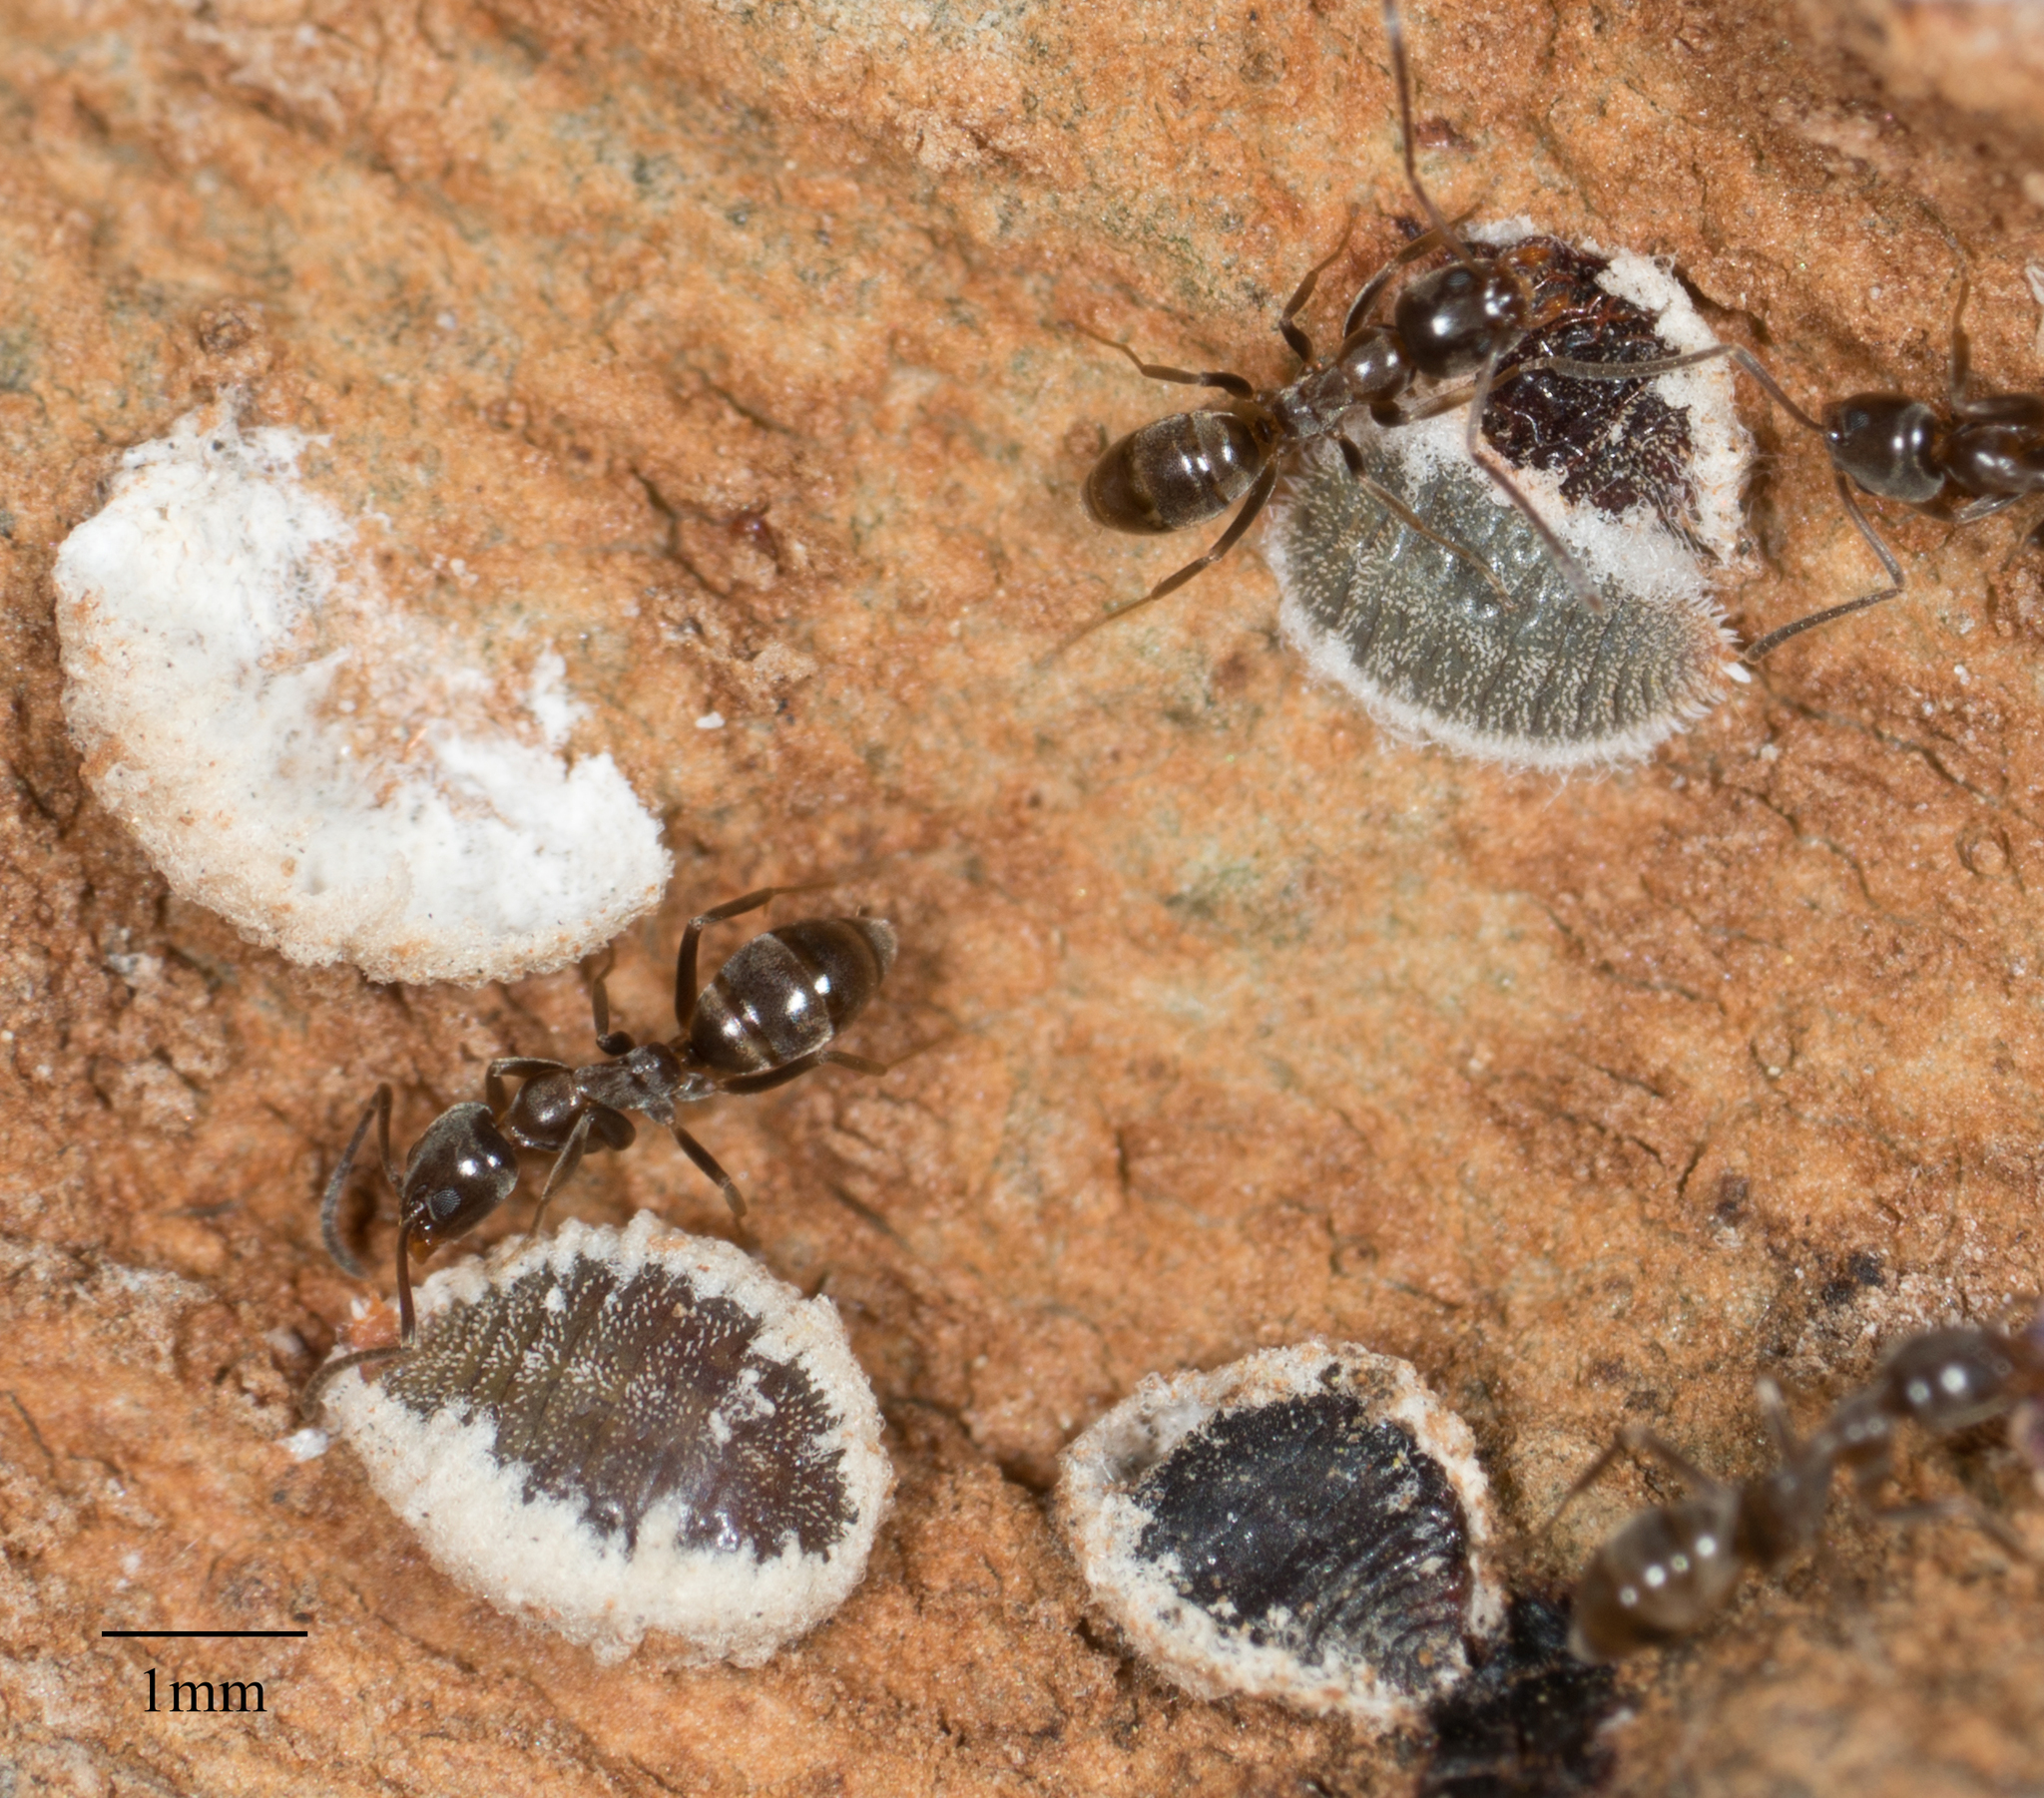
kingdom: Animalia
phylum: Arthropoda
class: Insecta
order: Hymenoptera
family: Formicidae
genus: Linepithema
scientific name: Linepithema humile
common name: Argentine ant
